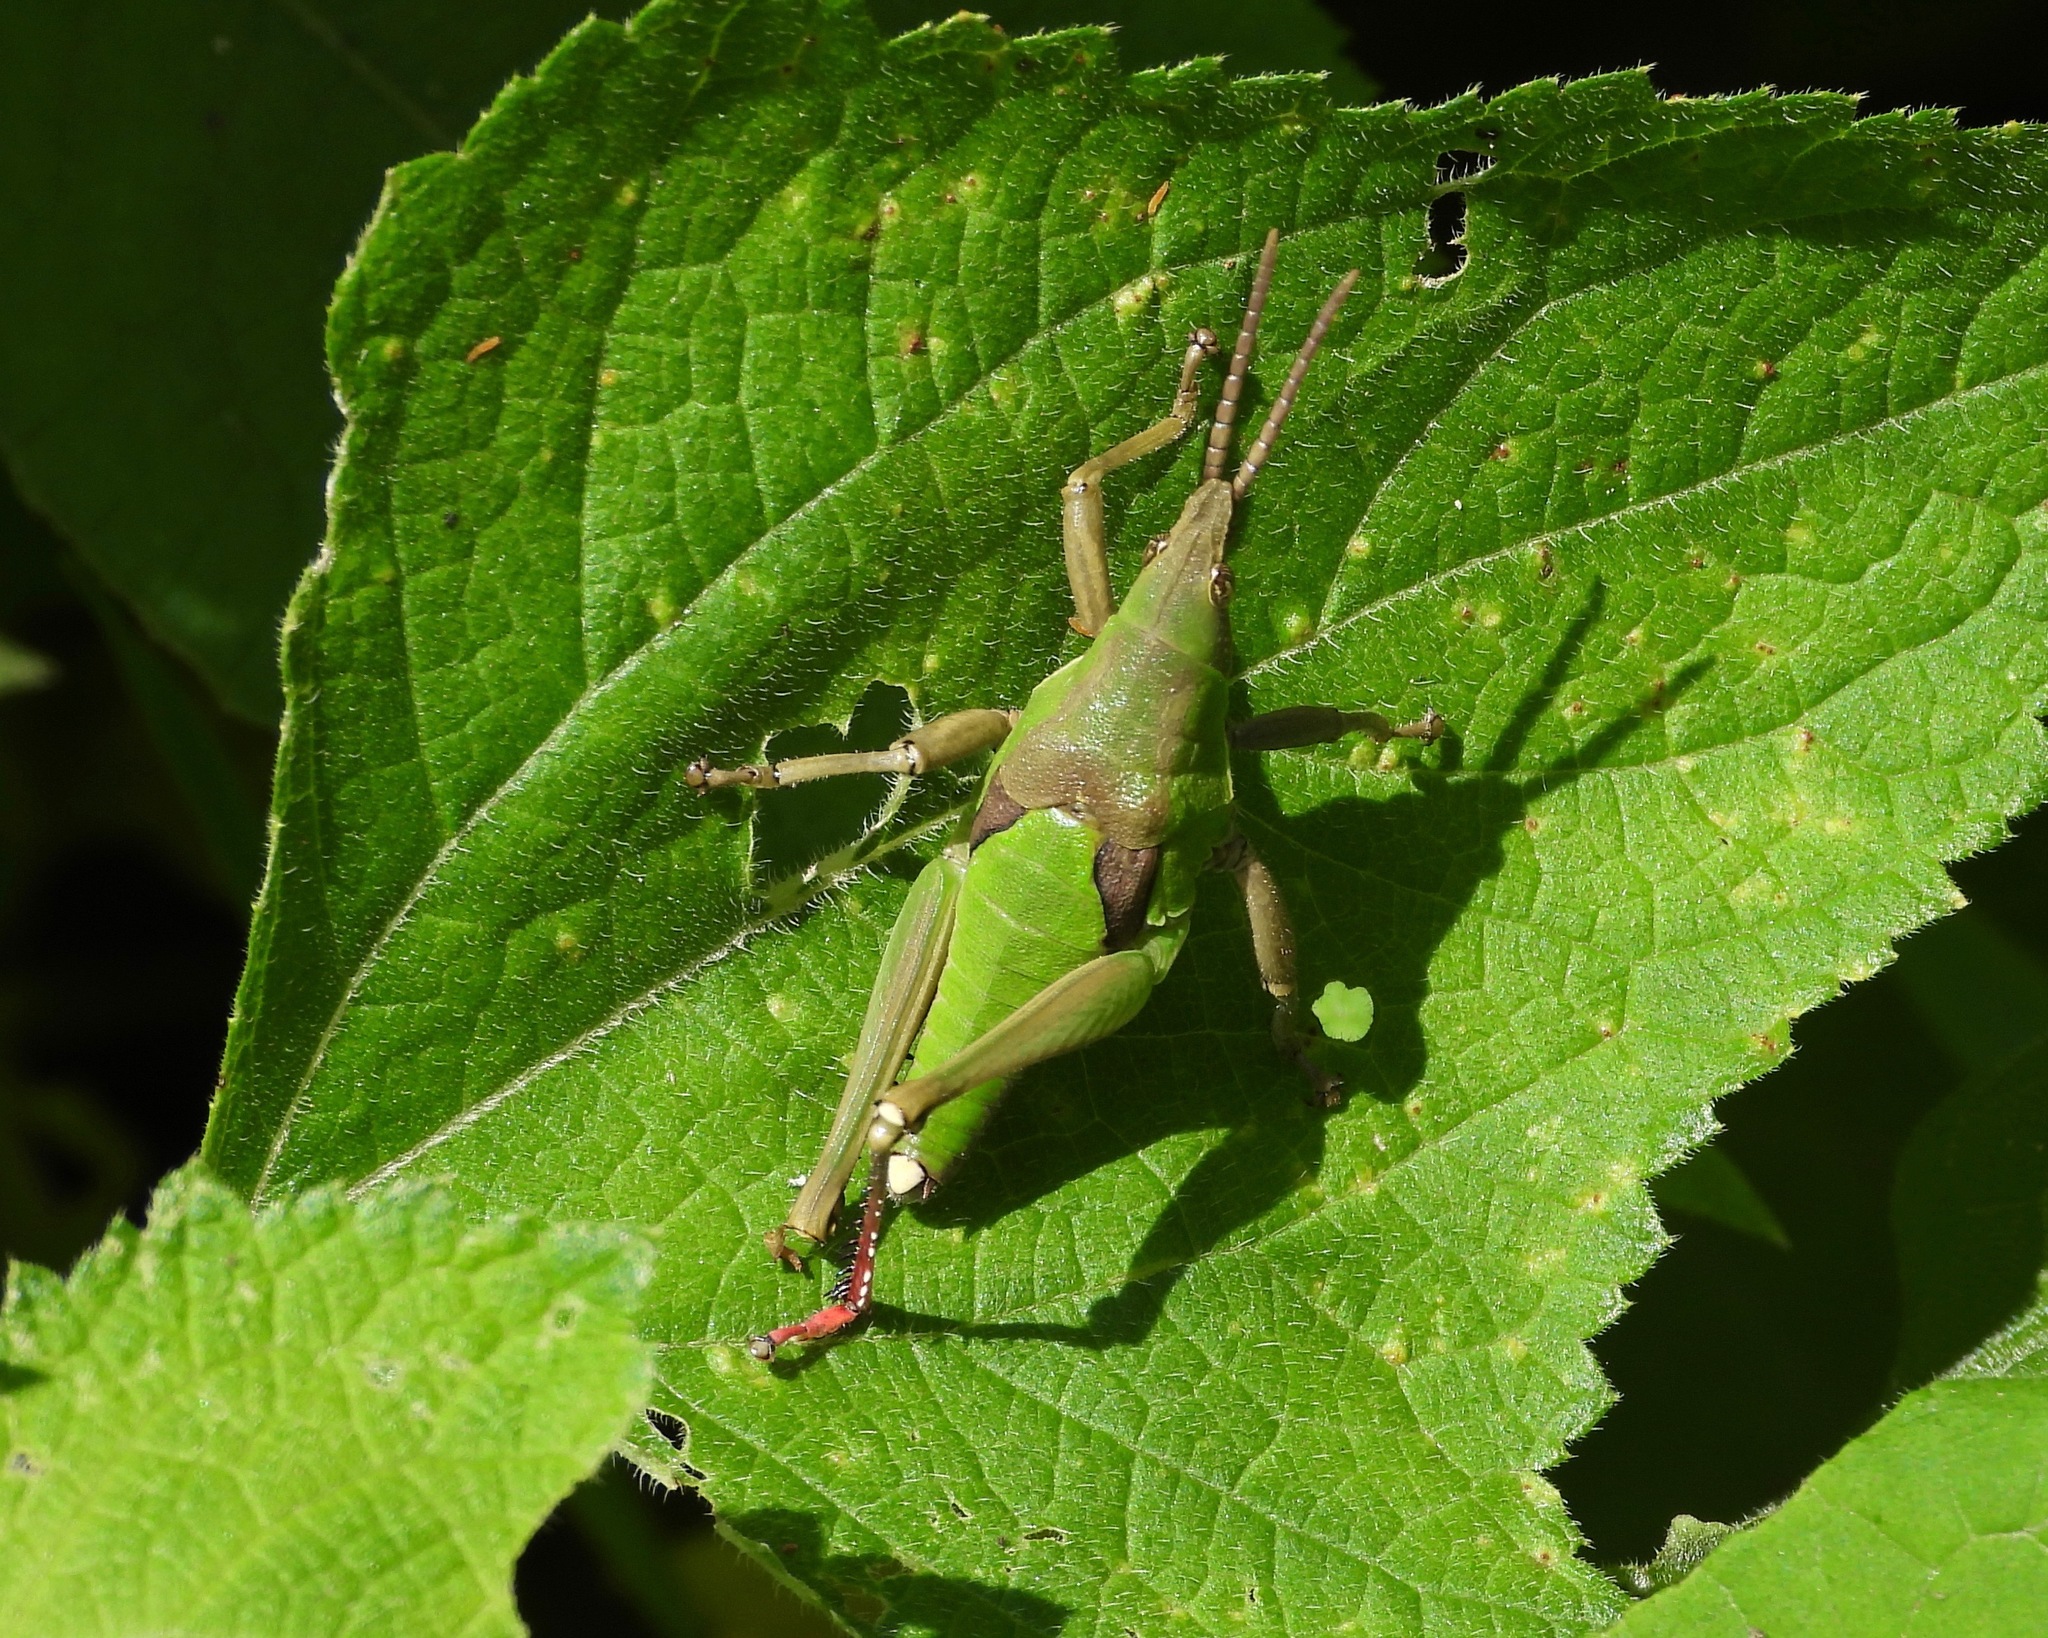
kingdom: Animalia
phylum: Arthropoda
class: Insecta
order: Orthoptera
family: Pyrgomorphidae
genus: Prosphena
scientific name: Prosphena scudderi
